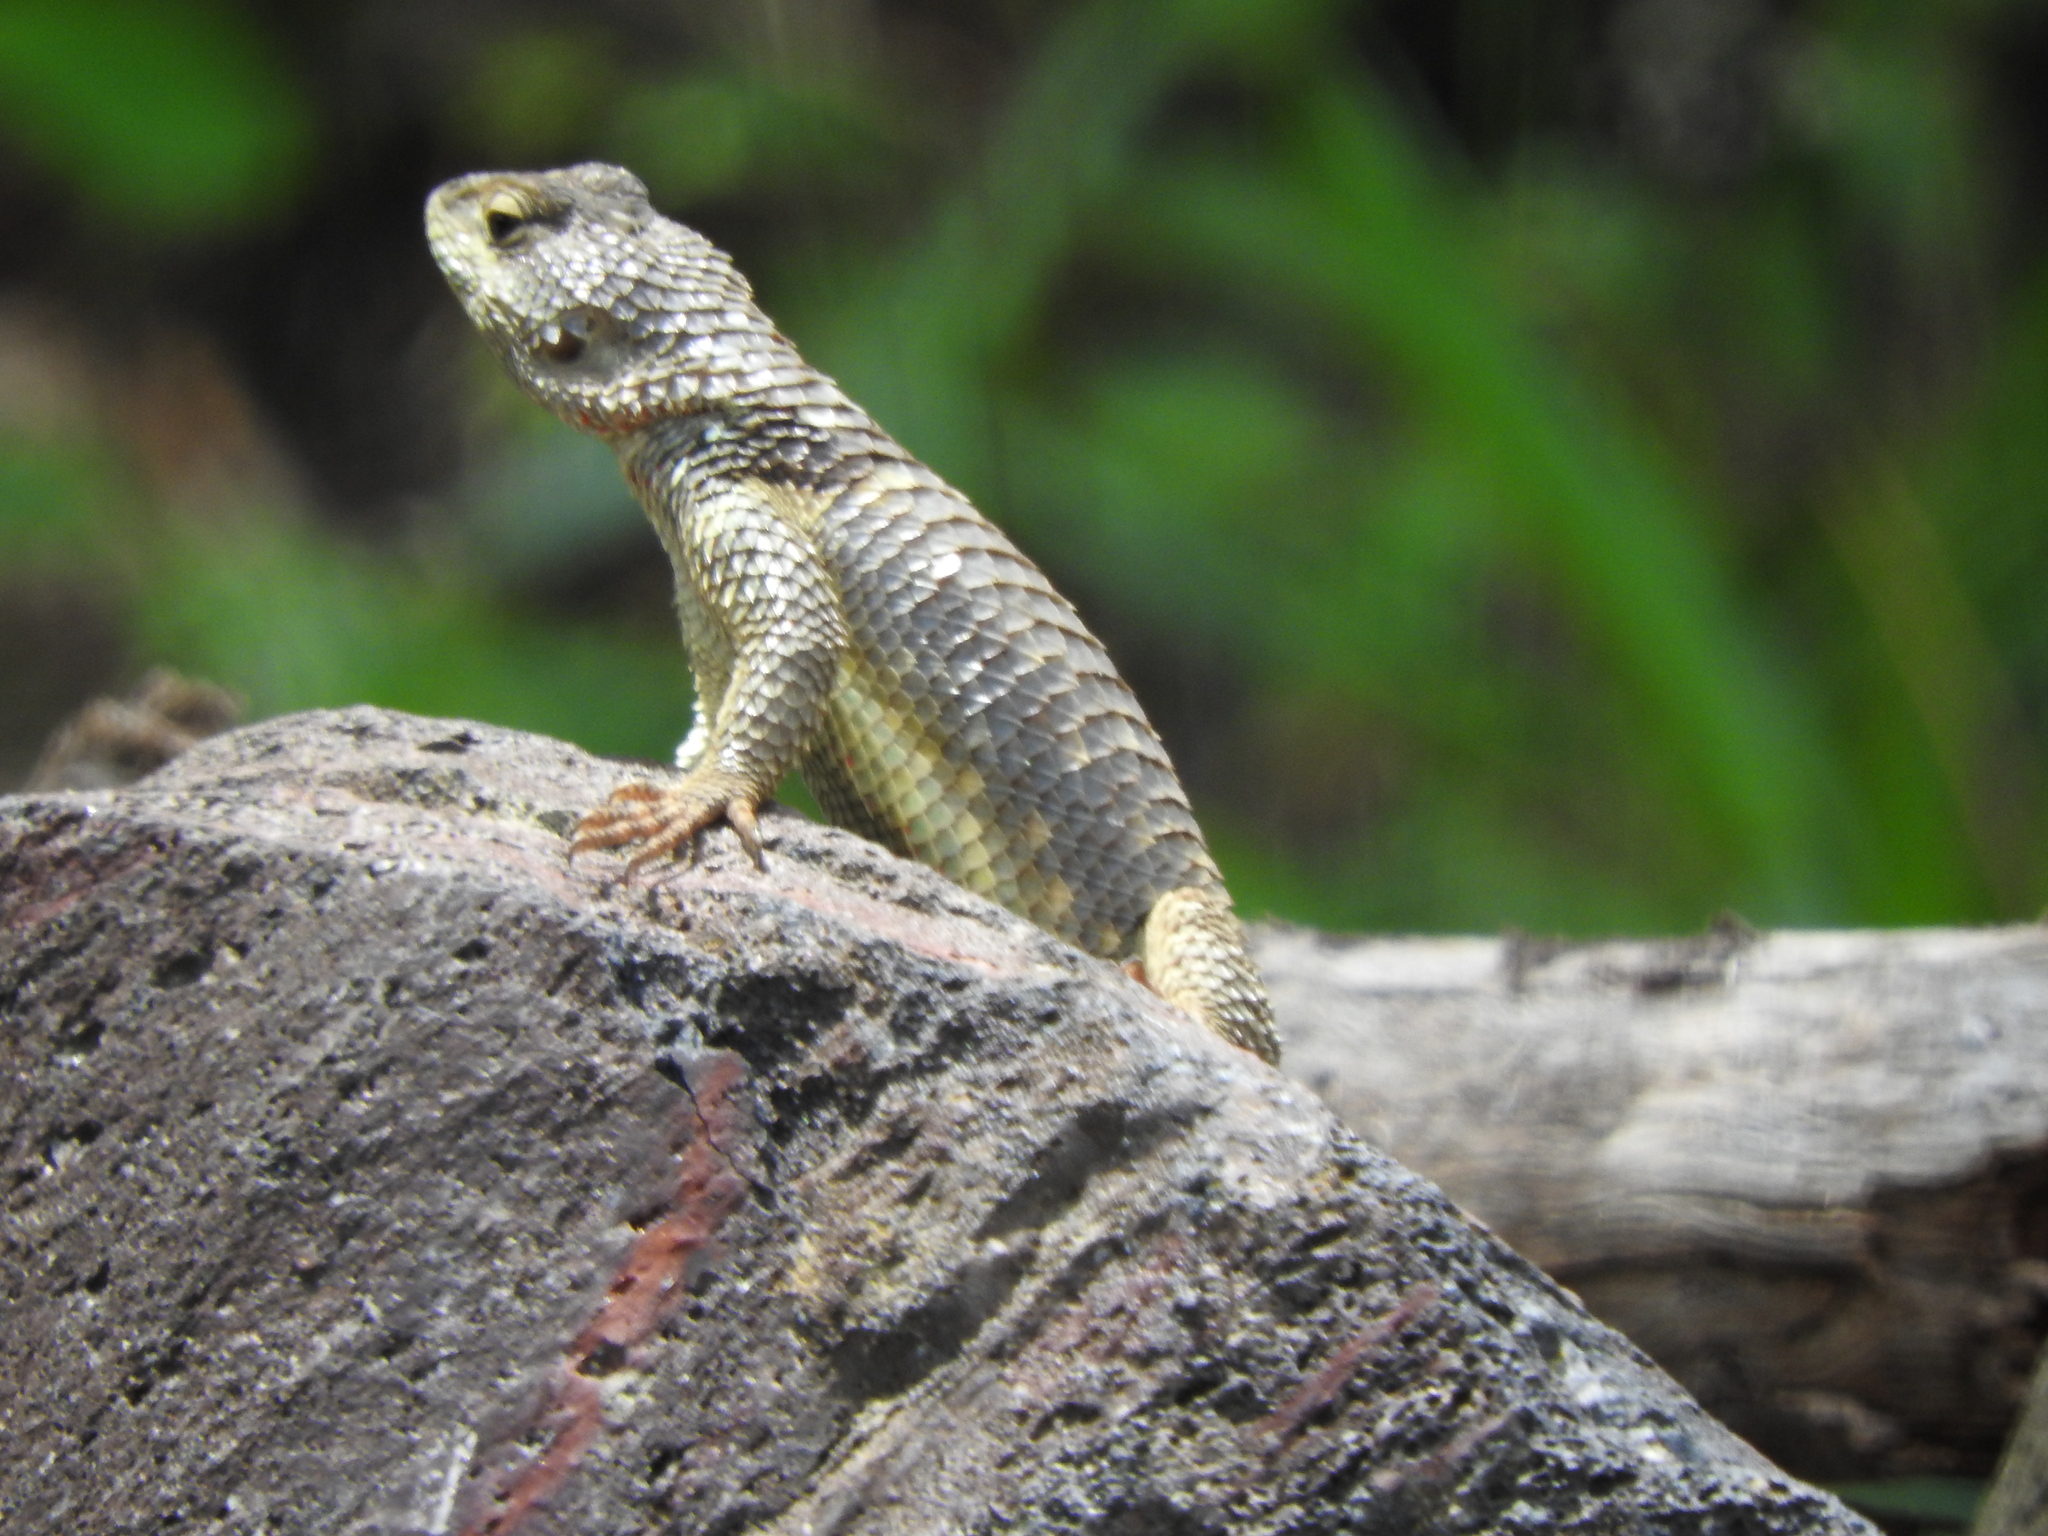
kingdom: Animalia
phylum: Chordata
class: Squamata
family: Phrynosomatidae
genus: Sceloporus
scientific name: Sceloporus torquatus
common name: Central plateau torquate lizard [melanogaster]
